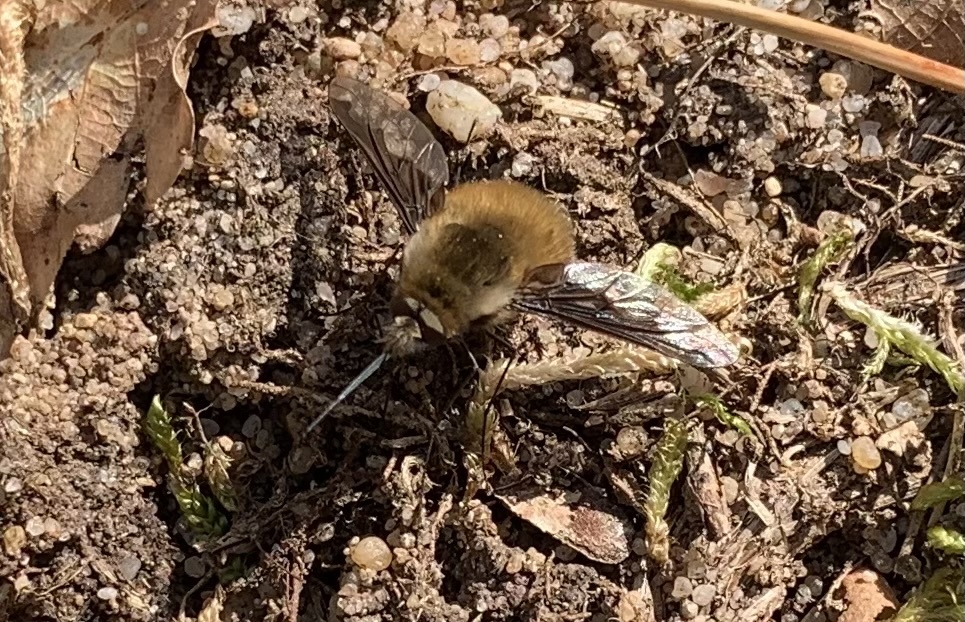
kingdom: Animalia
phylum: Arthropoda
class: Insecta
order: Diptera
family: Bombyliidae
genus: Bombylius
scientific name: Bombylius major
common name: Bee fly
